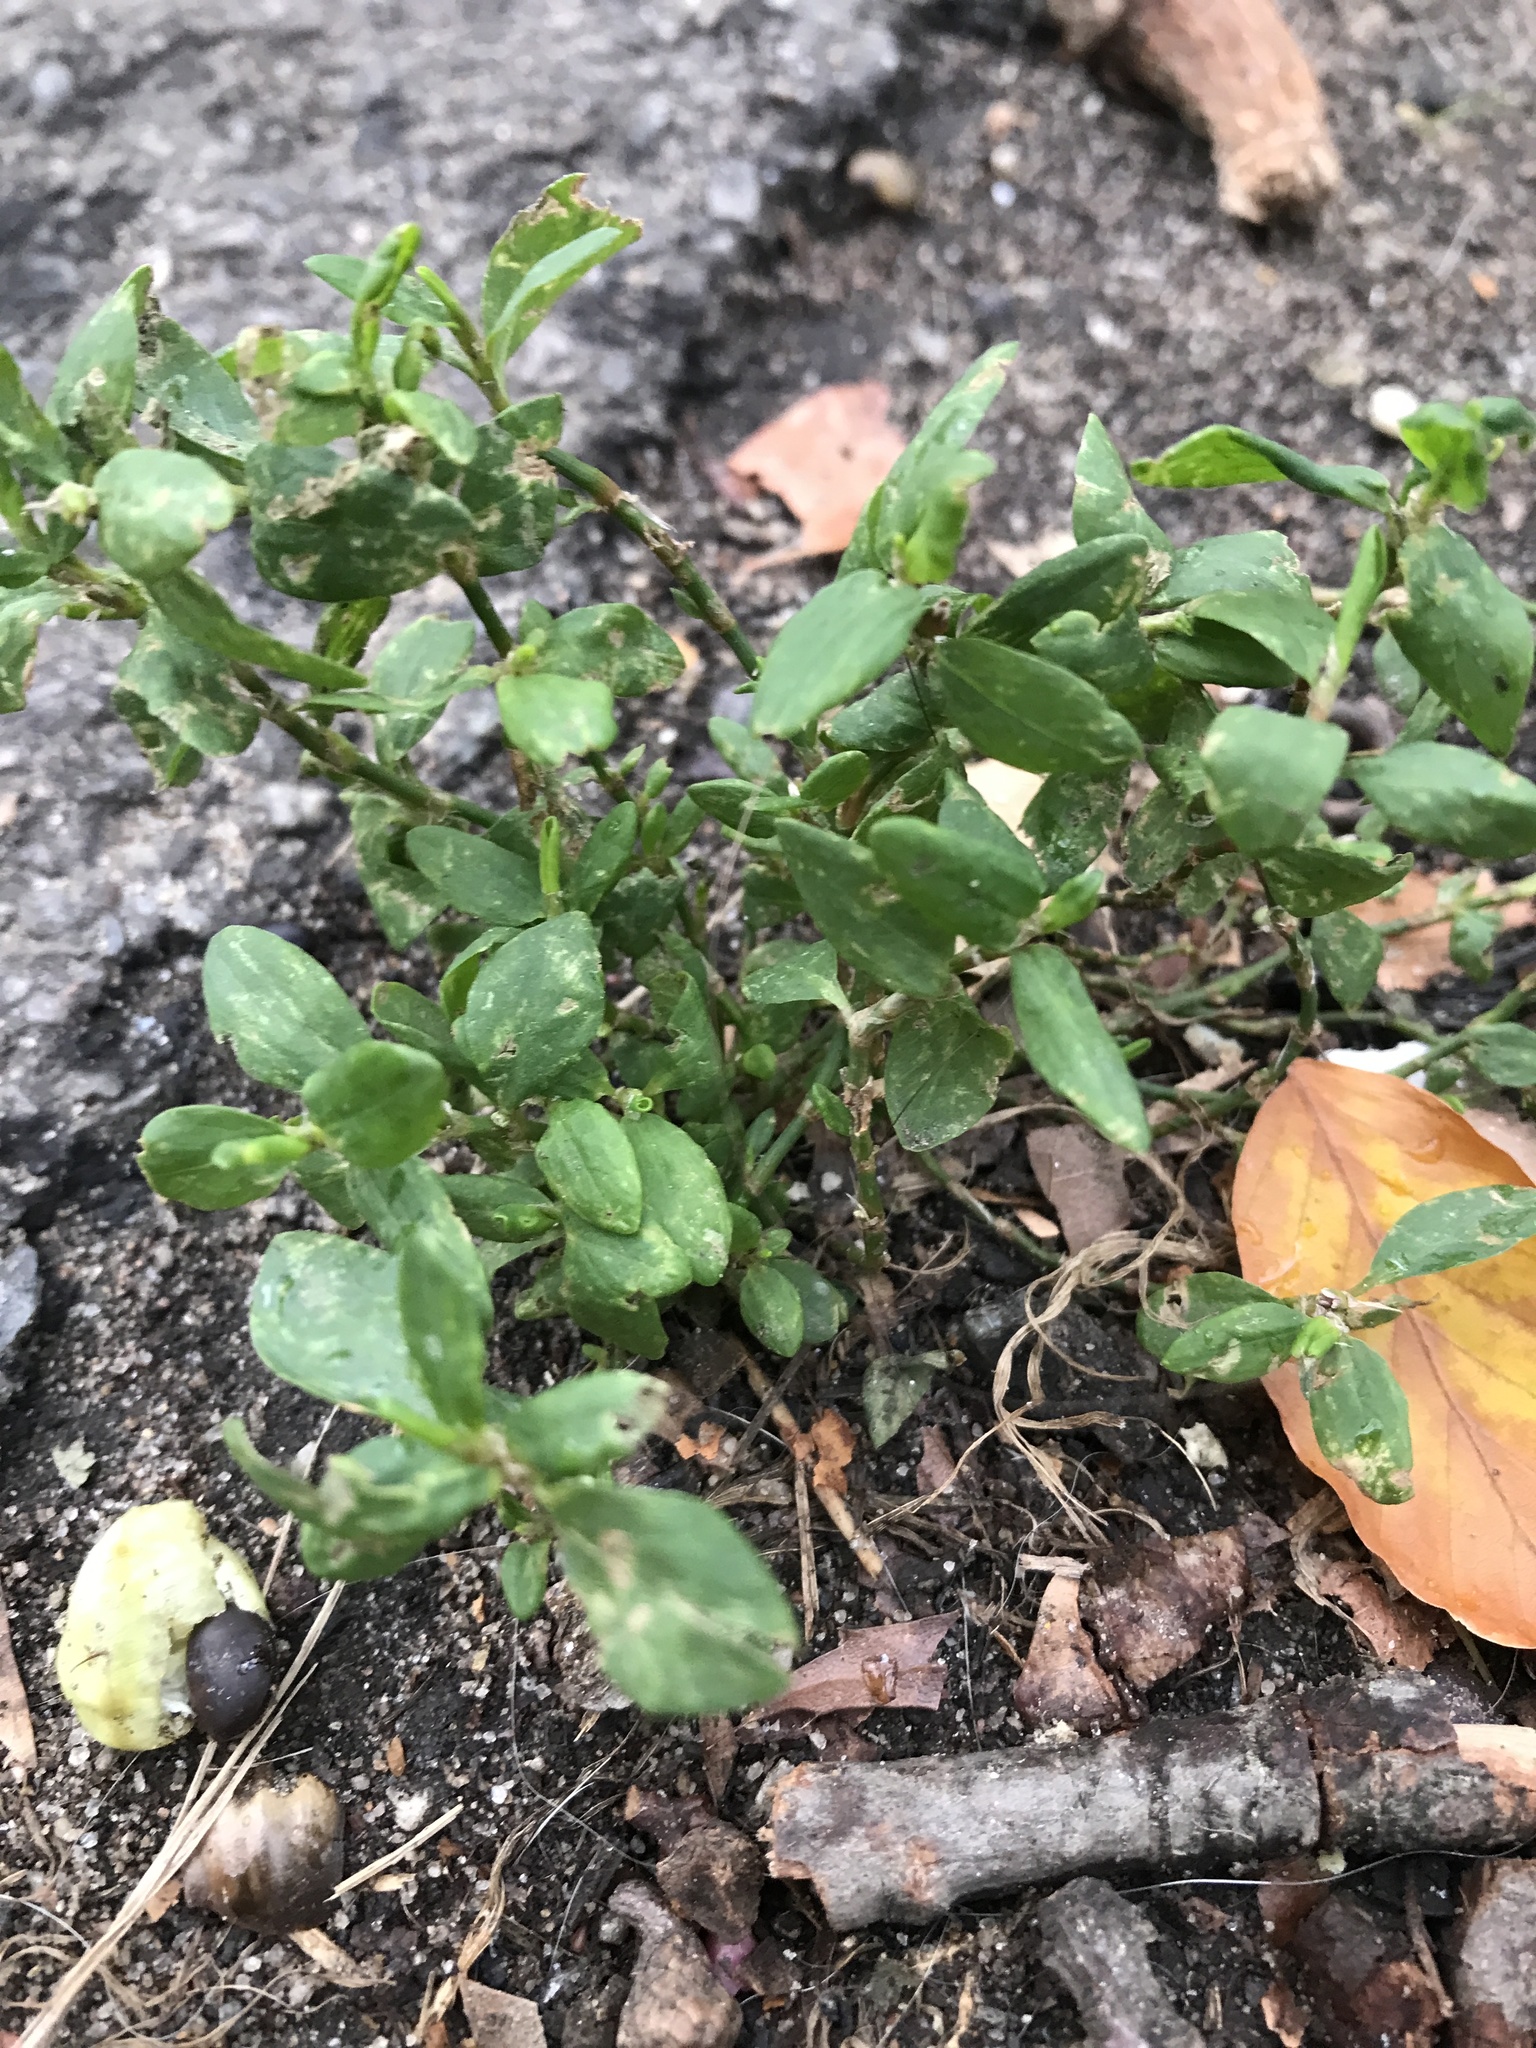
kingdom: Plantae
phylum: Tracheophyta
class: Magnoliopsida
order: Caryophyllales
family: Polygonaceae
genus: Polygonum
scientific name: Polygonum aviculare
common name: Prostrate knotweed
